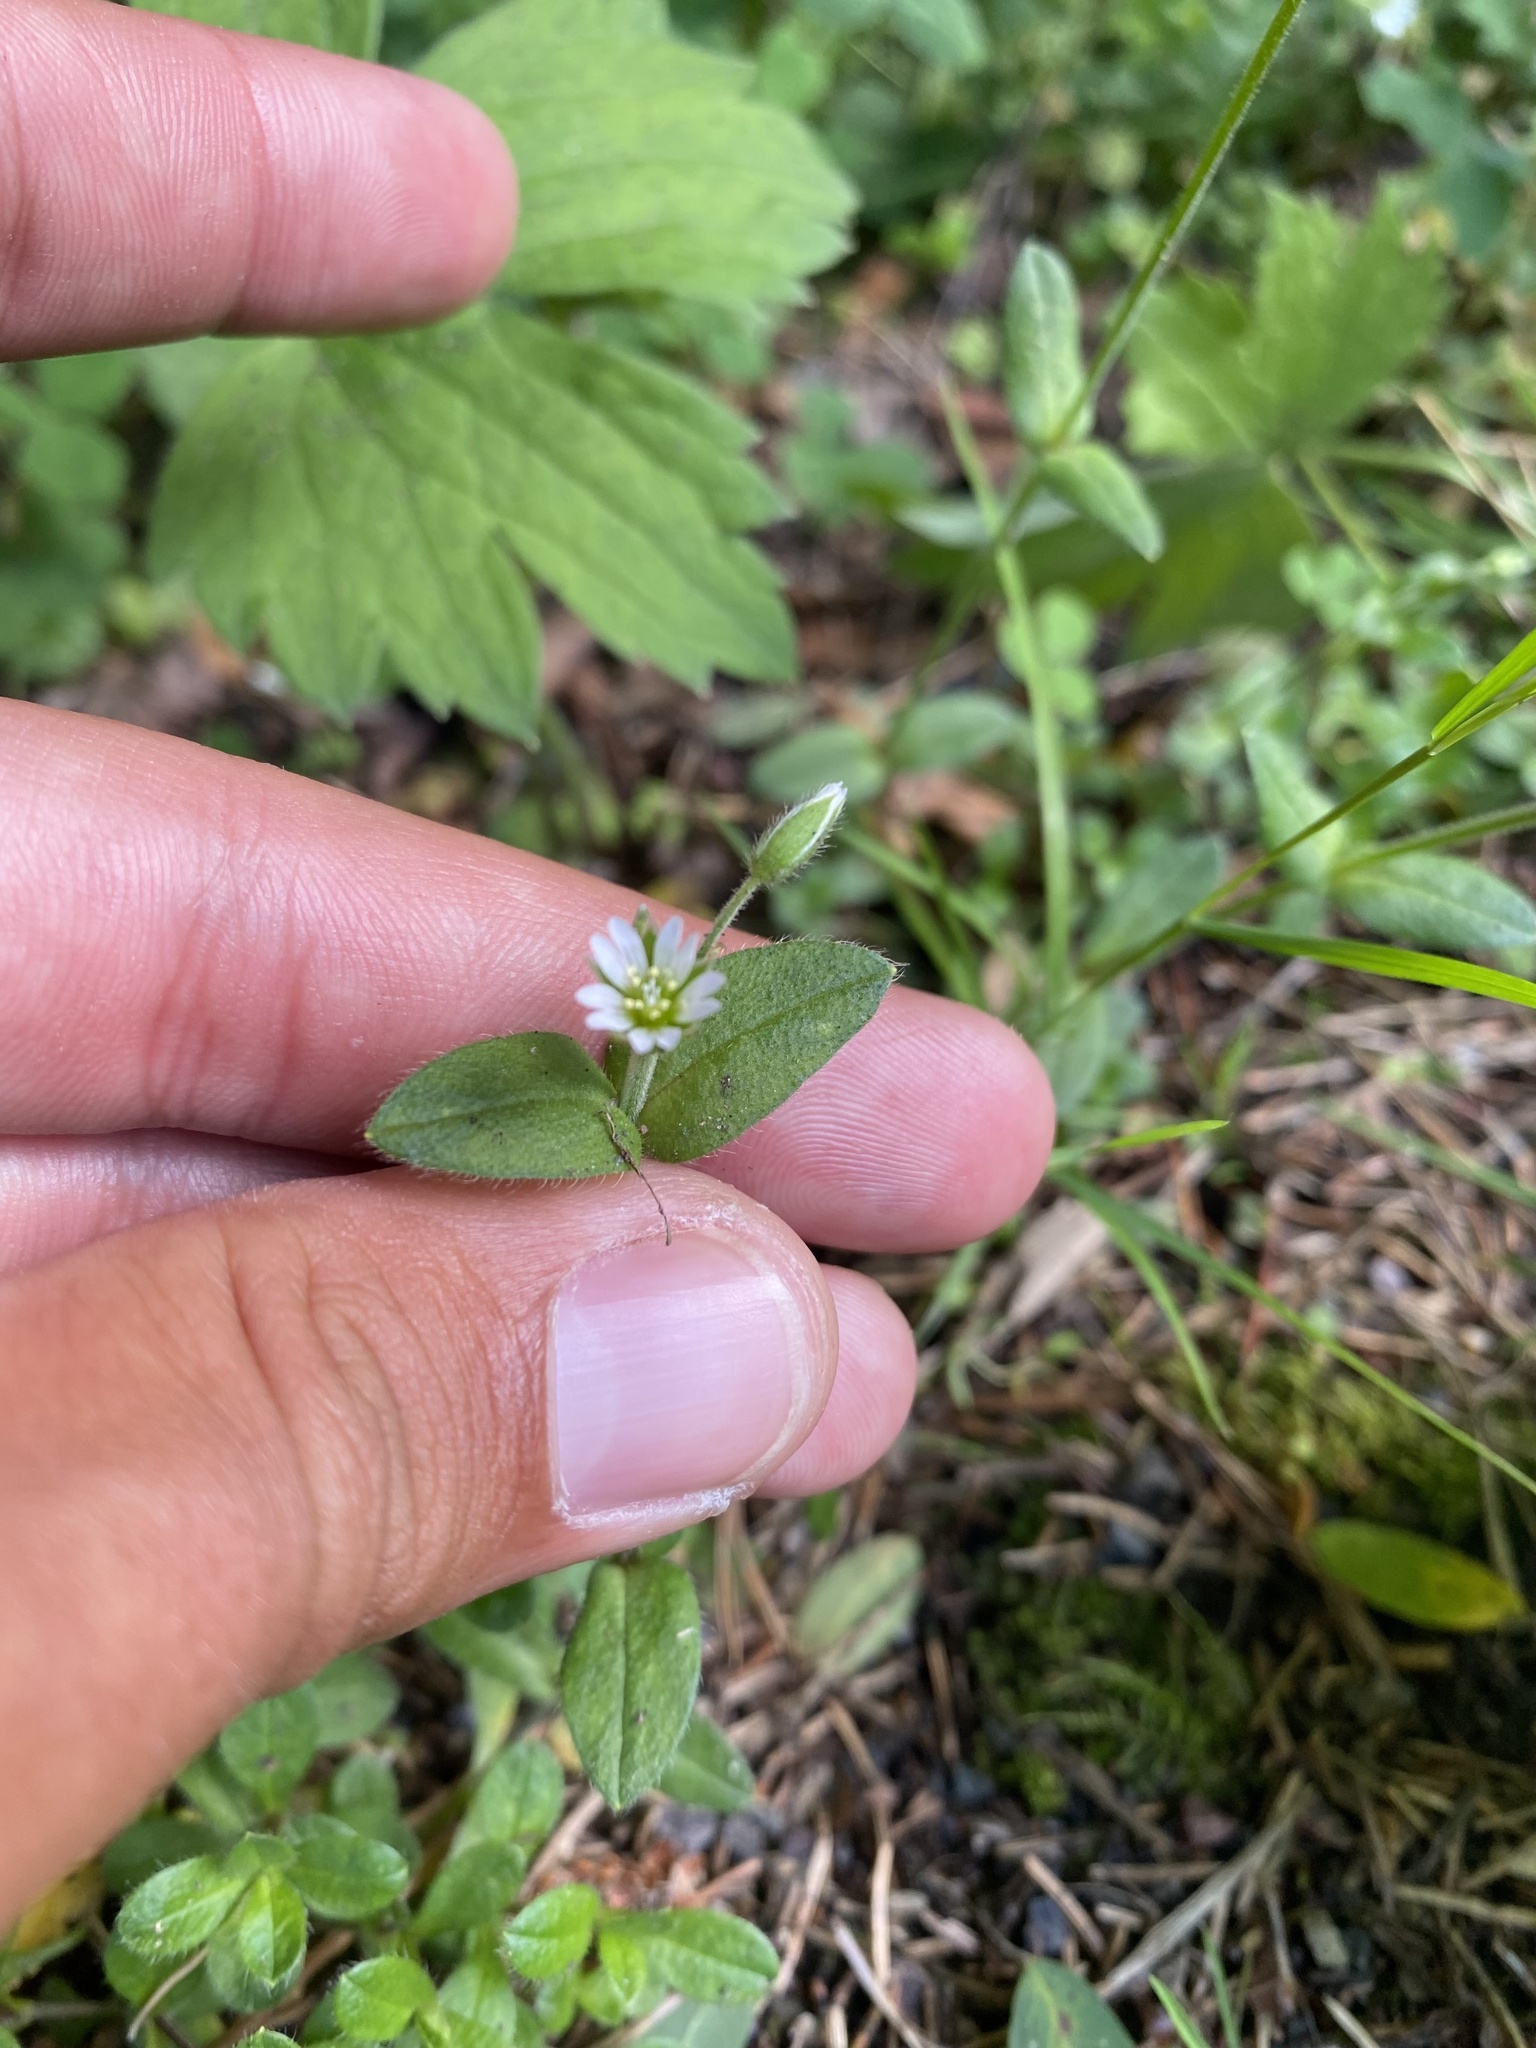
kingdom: Plantae
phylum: Tracheophyta
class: Magnoliopsida
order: Caryophyllales
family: Caryophyllaceae
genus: Cerastium
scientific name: Cerastium holosteoides
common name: Big chickweed
